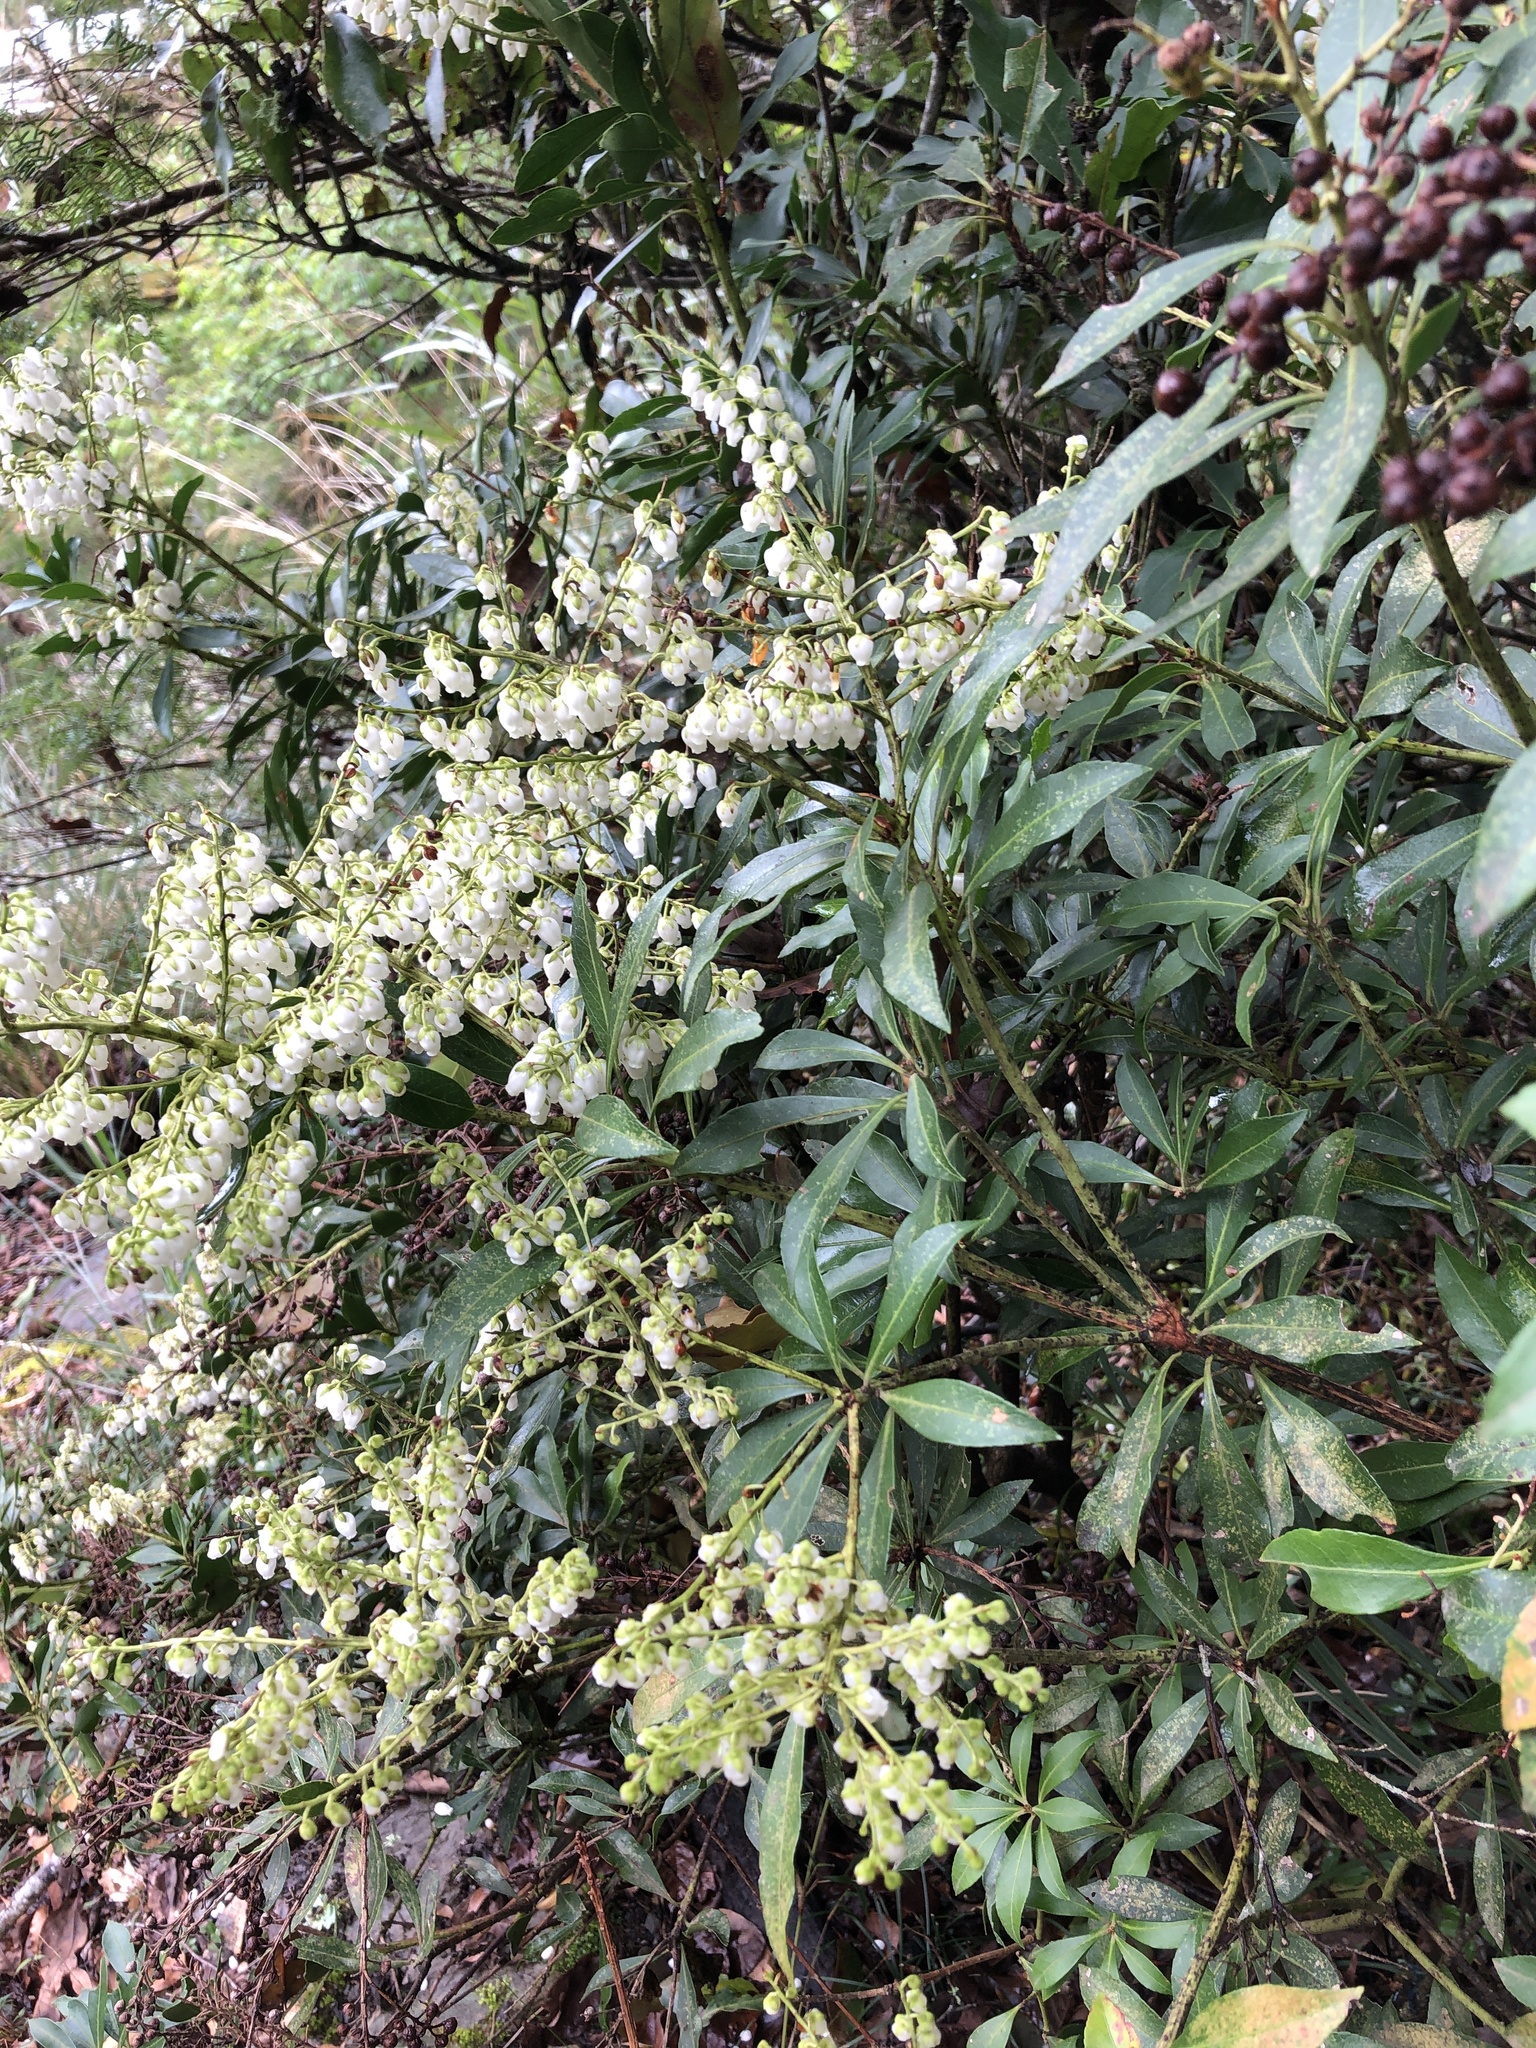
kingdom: Plantae
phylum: Tracheophyta
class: Magnoliopsida
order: Ericales
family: Ericaceae
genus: Pieris
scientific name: Pieris japonica
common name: Japanese pieris
